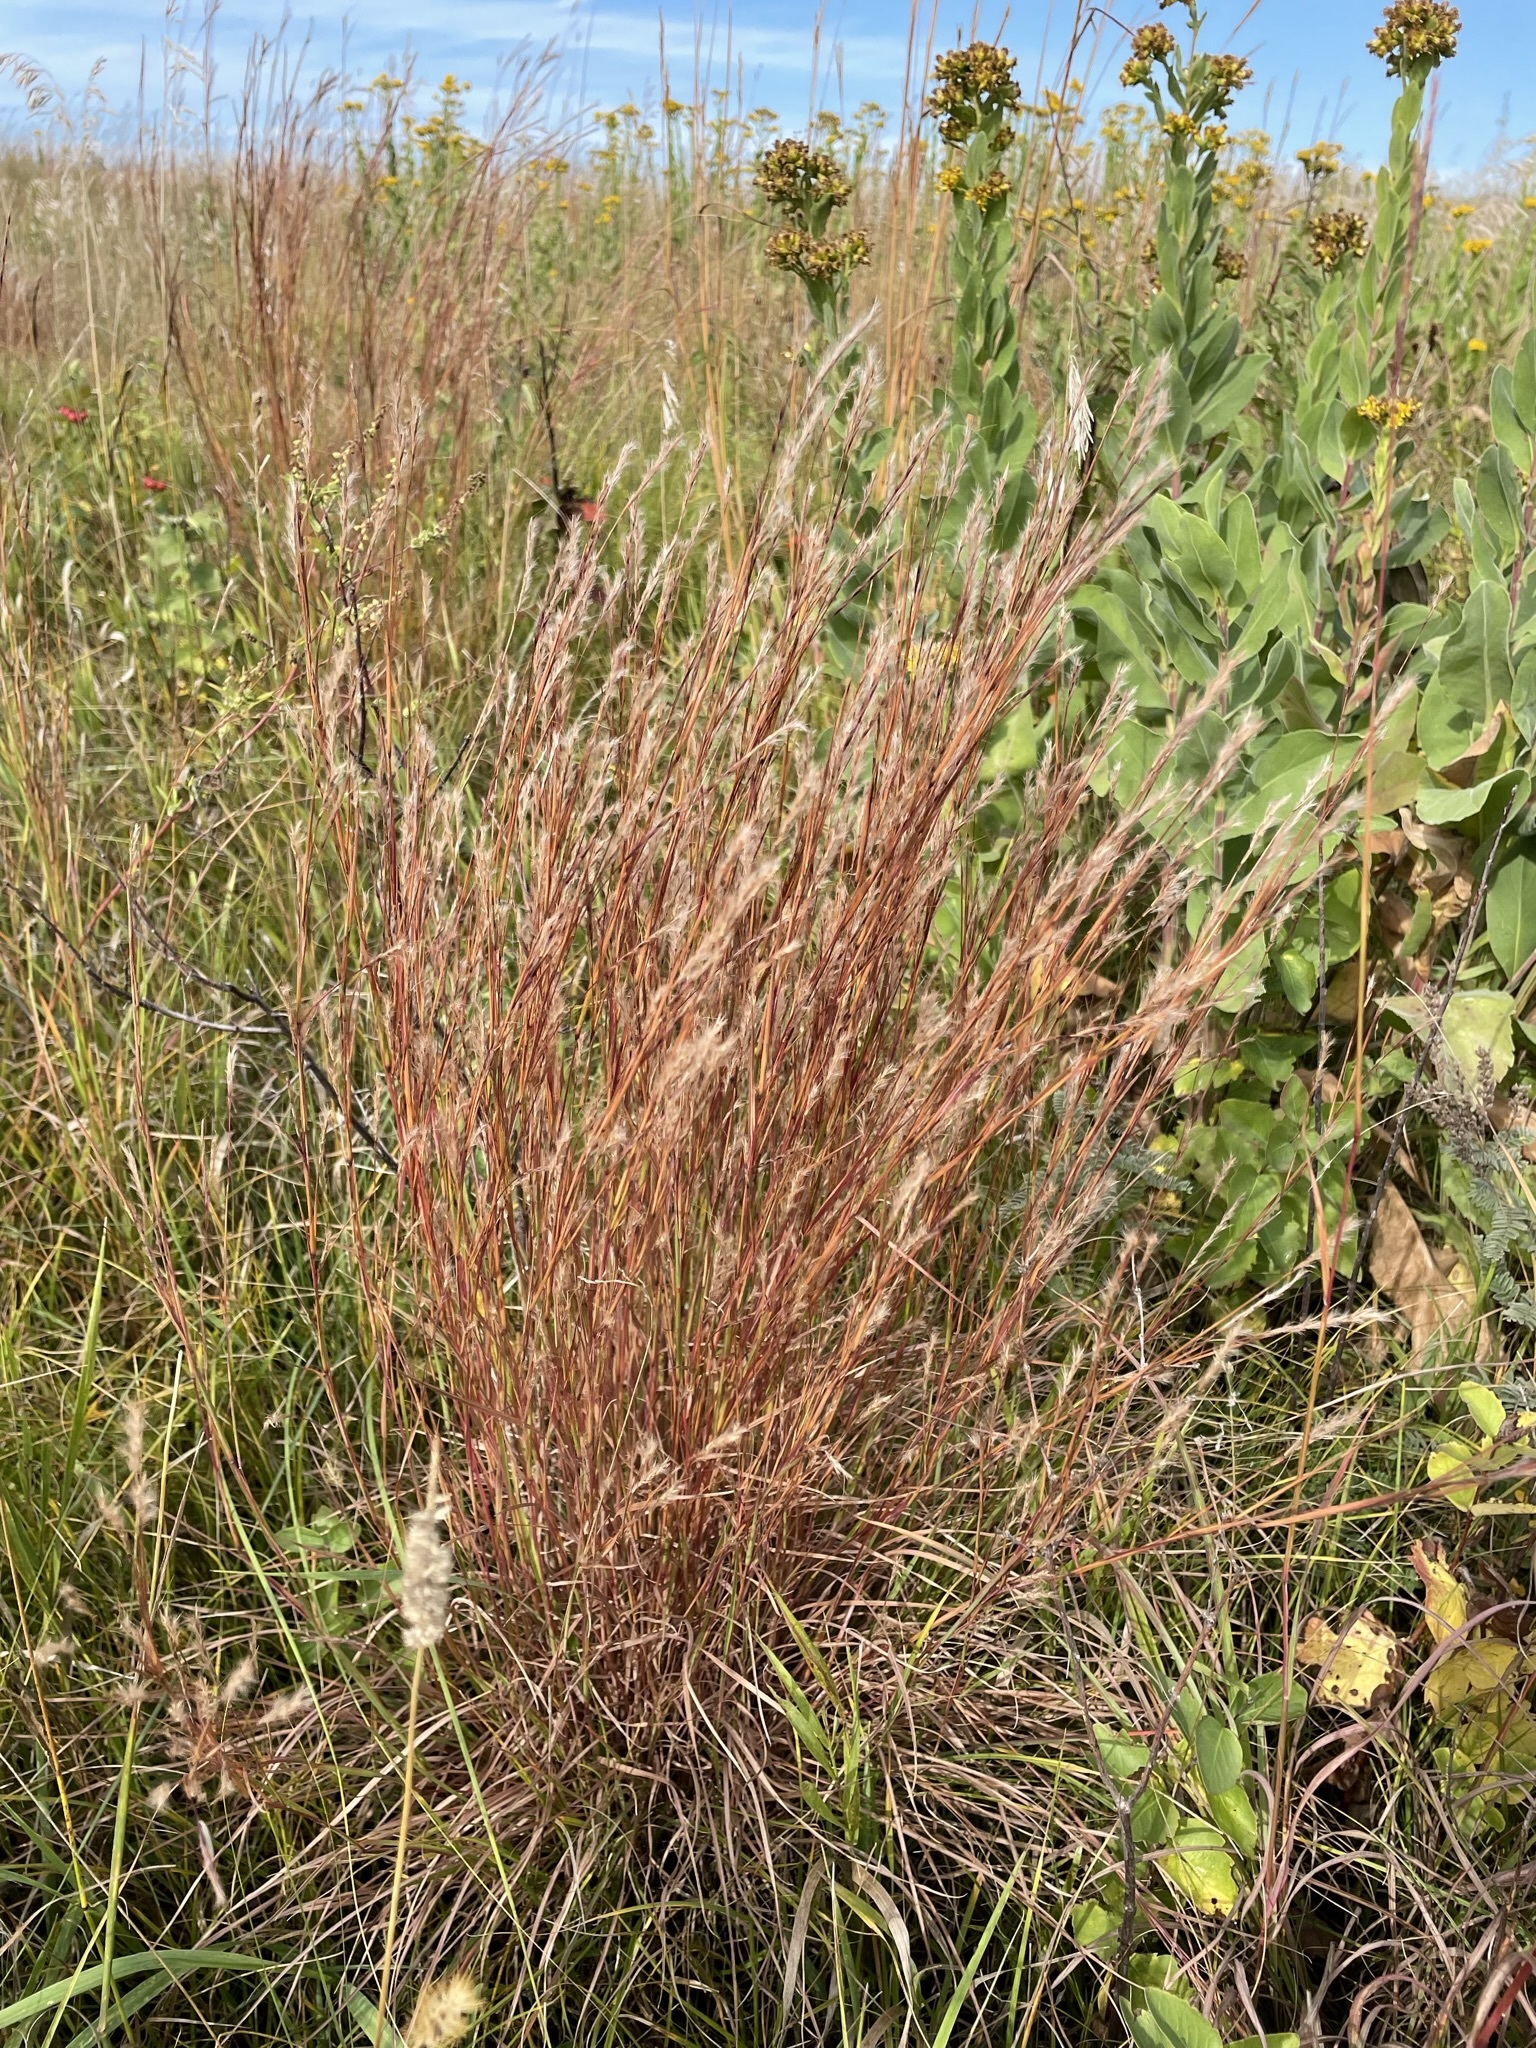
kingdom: Plantae
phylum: Tracheophyta
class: Liliopsida
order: Poales
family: Poaceae
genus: Schizachyrium
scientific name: Schizachyrium scoparium
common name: Little bluestem
